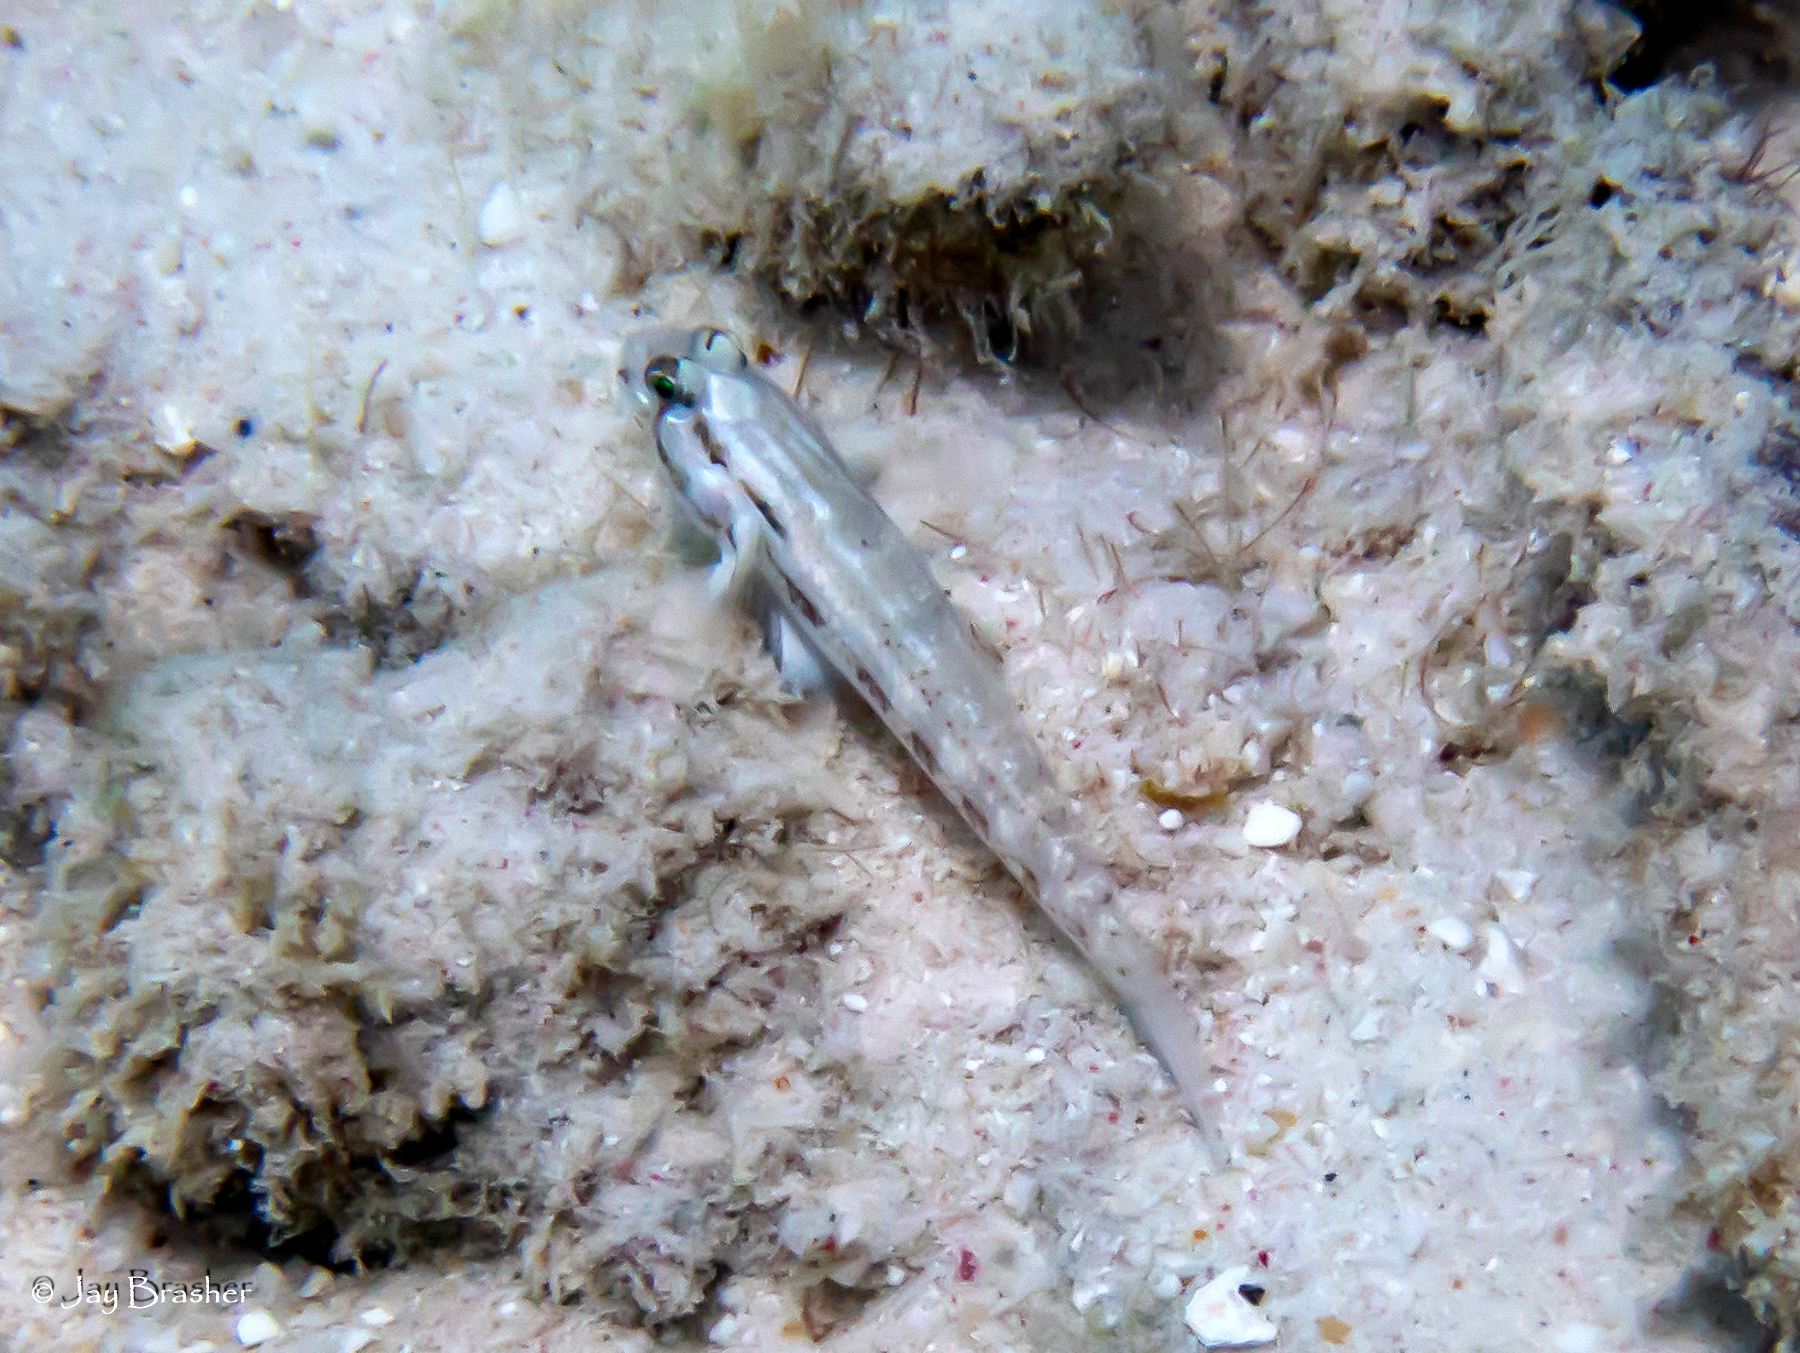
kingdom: Animalia
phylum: Chordata
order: Perciformes
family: Gobiidae
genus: Gnatholepis
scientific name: Gnatholepis thompsoni
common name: Goldspot goby
